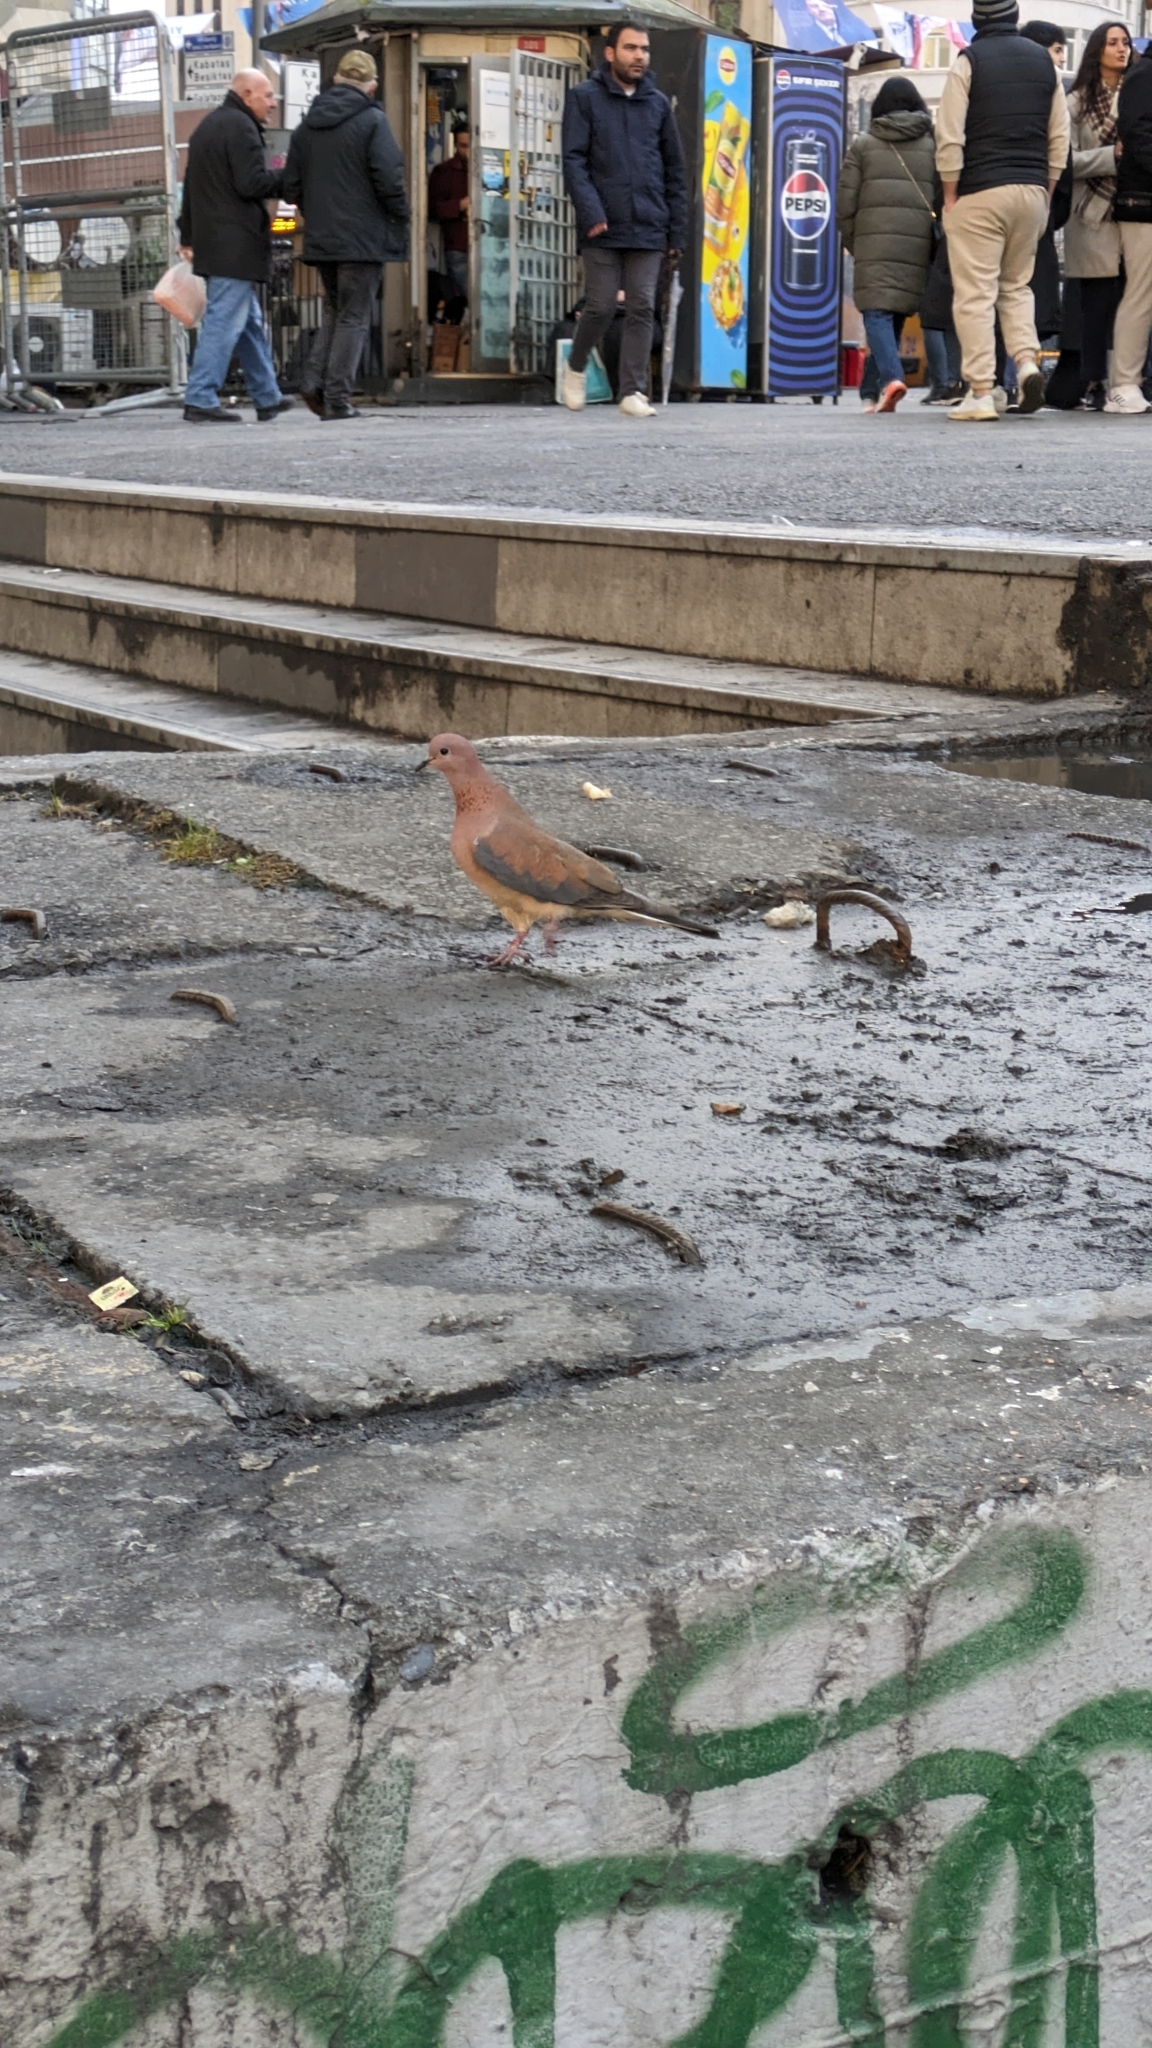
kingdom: Animalia
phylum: Chordata
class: Aves
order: Columbiformes
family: Columbidae
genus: Spilopelia
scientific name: Spilopelia senegalensis
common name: Laughing dove
